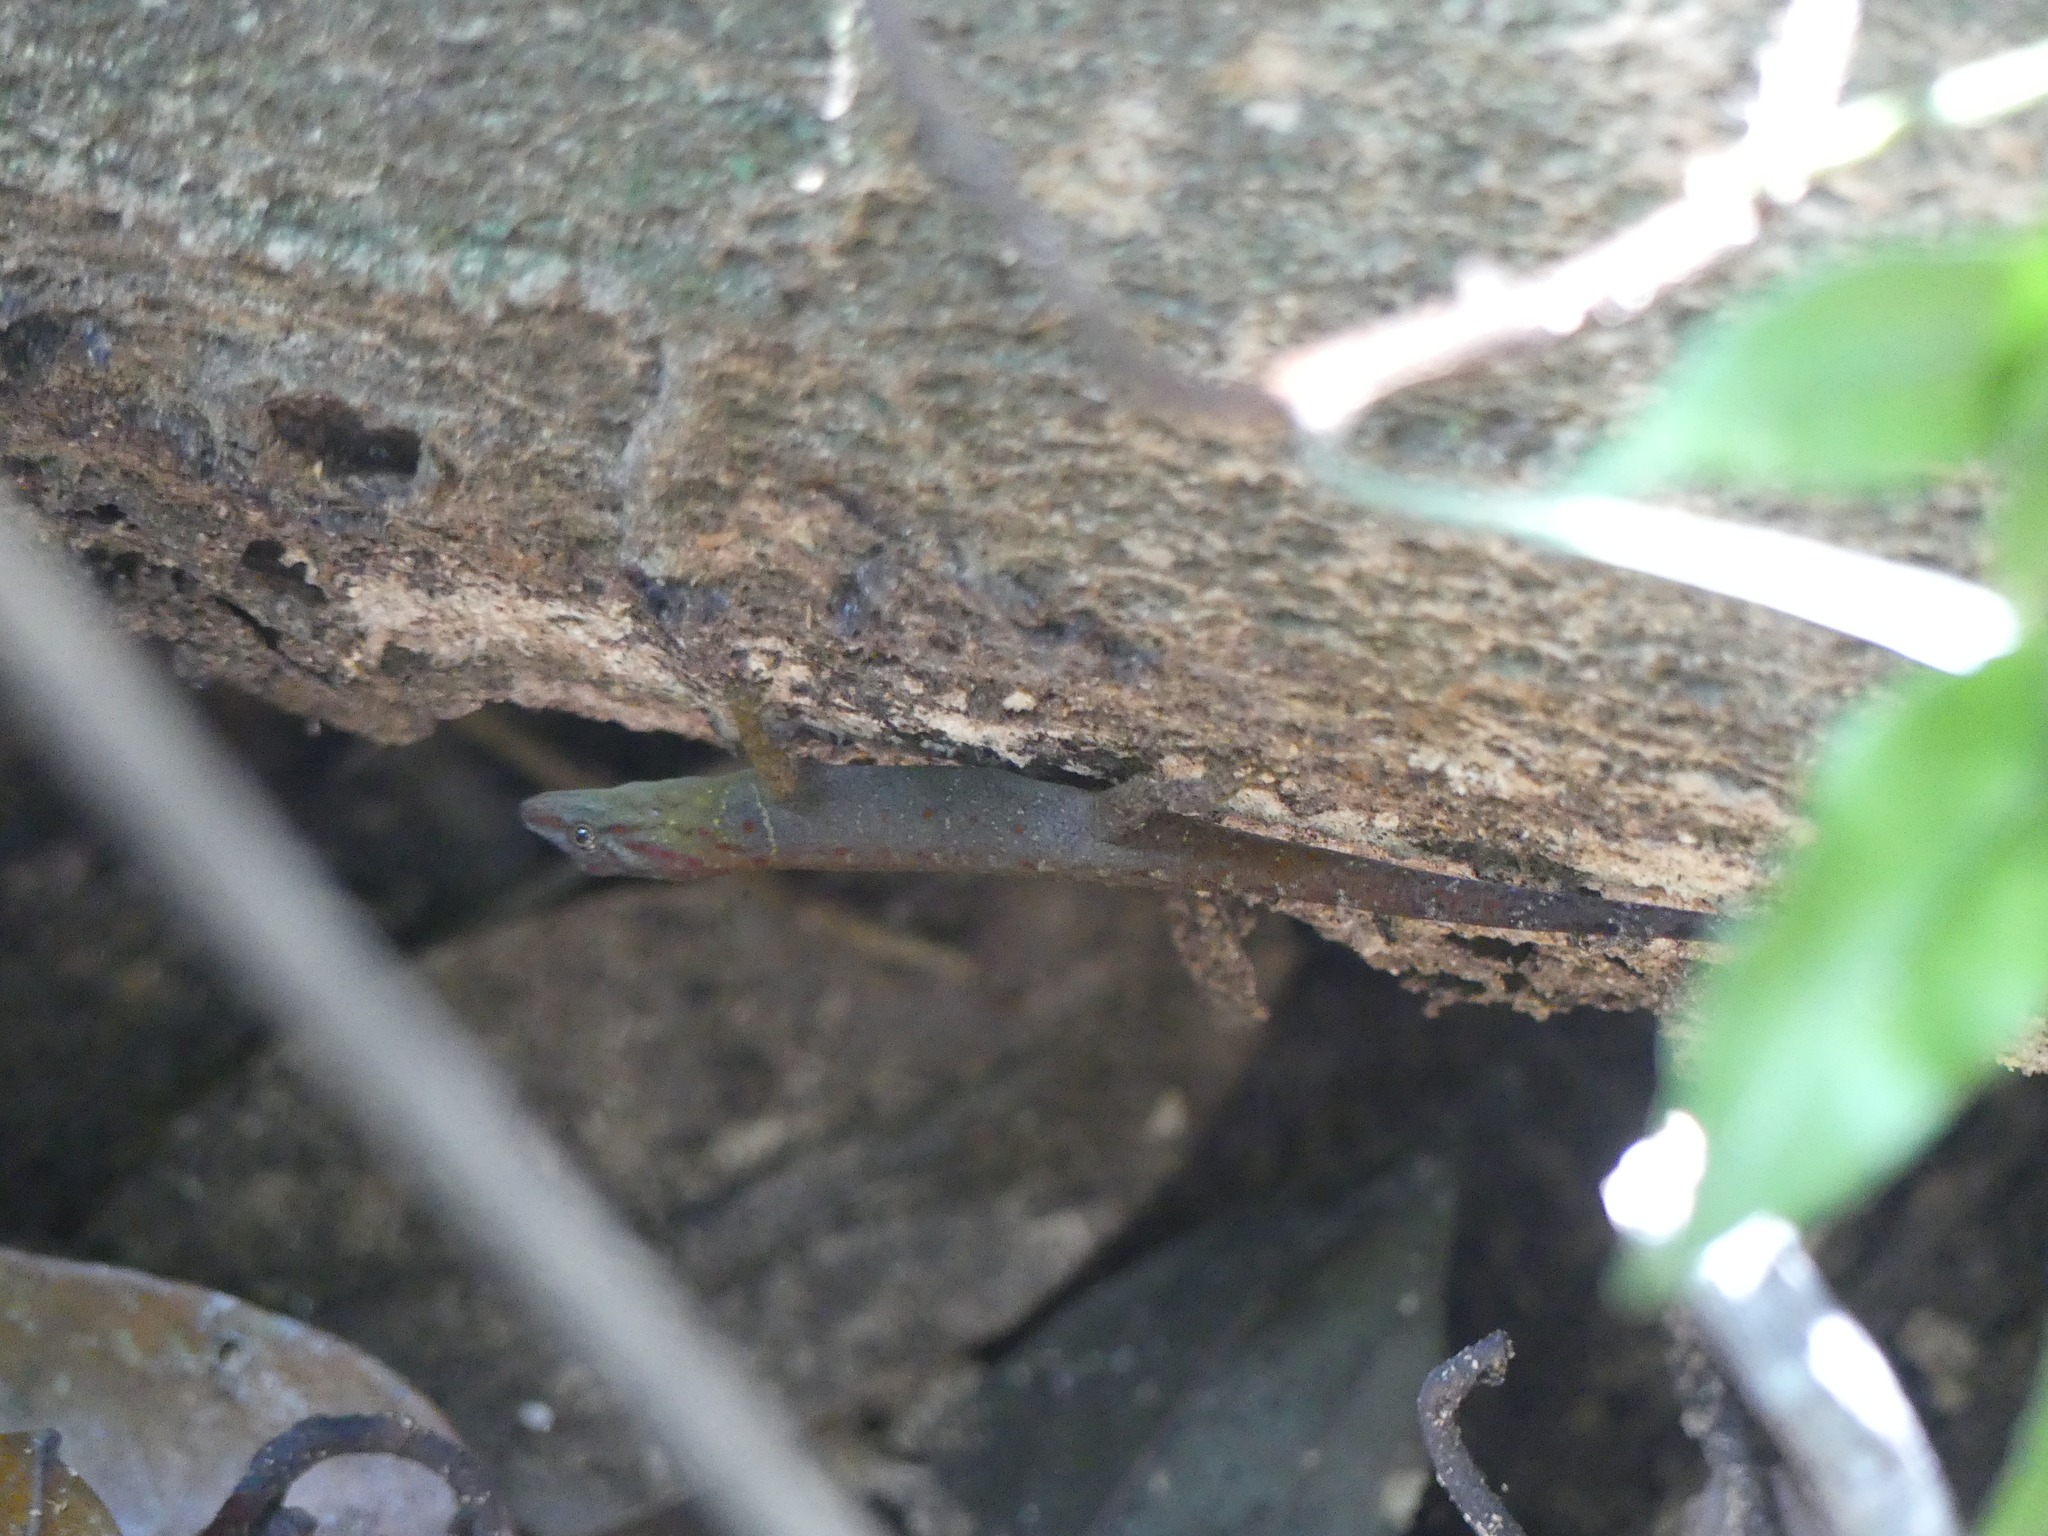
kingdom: Animalia
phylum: Chordata
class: Squamata
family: Sphaerodactylidae
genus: Gonatodes
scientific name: Gonatodes humeralis
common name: South american clawed gecko
